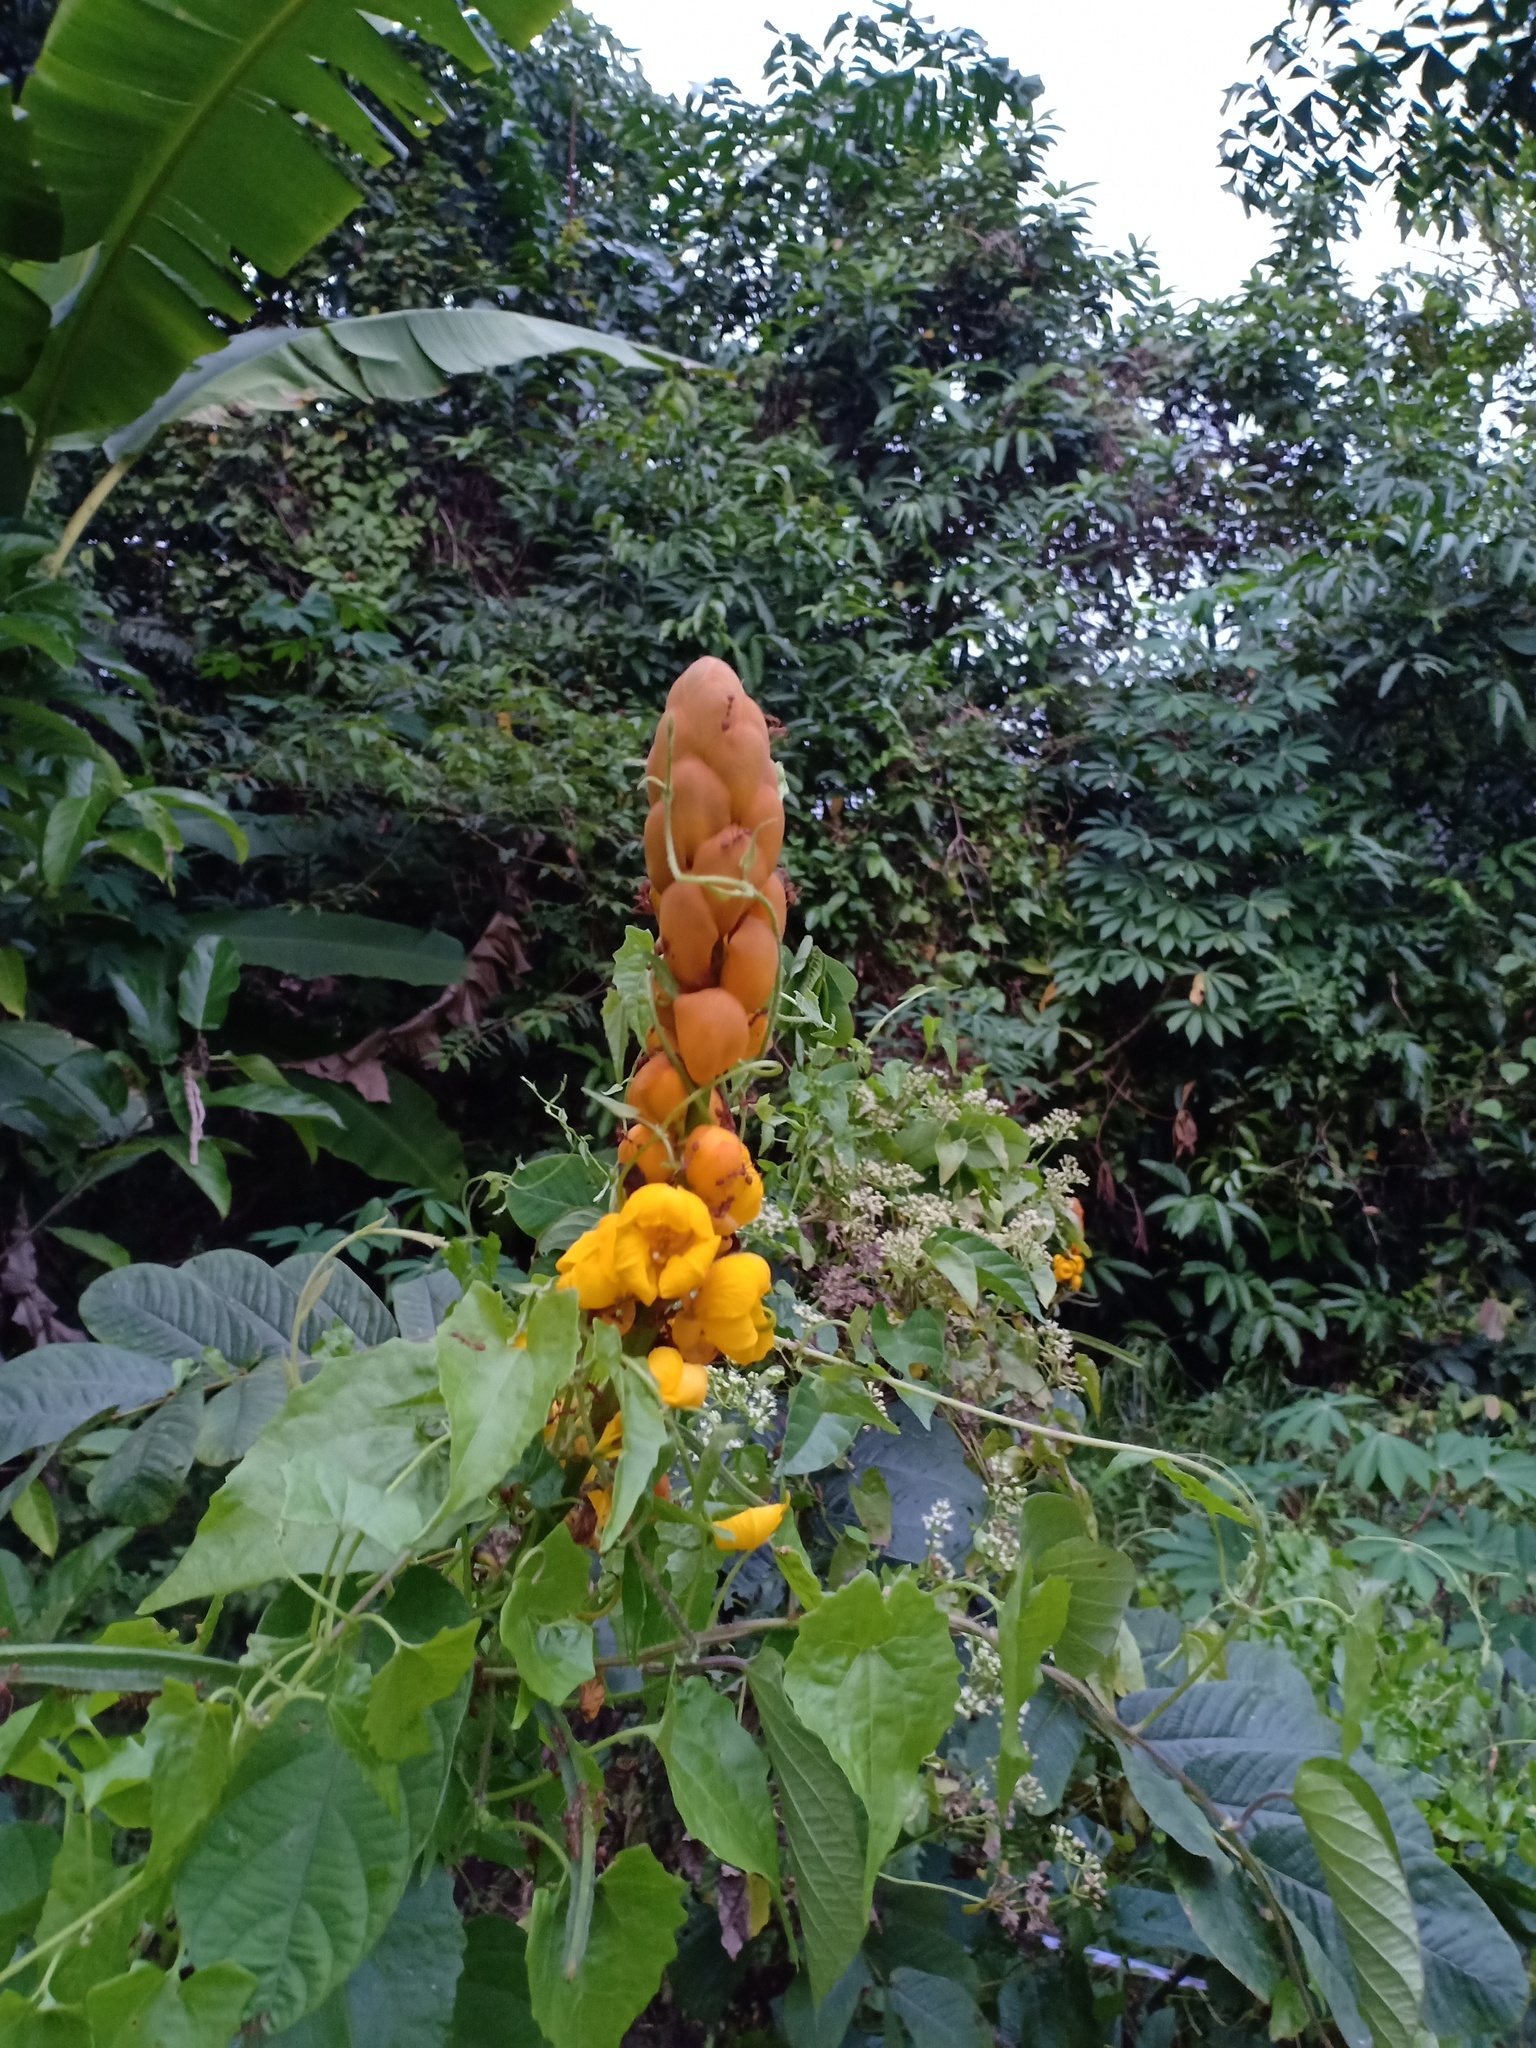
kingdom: Plantae
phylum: Tracheophyta
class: Magnoliopsida
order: Fabales
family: Fabaceae
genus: Senna
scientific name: Senna alata
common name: Emperor's candlesticks
